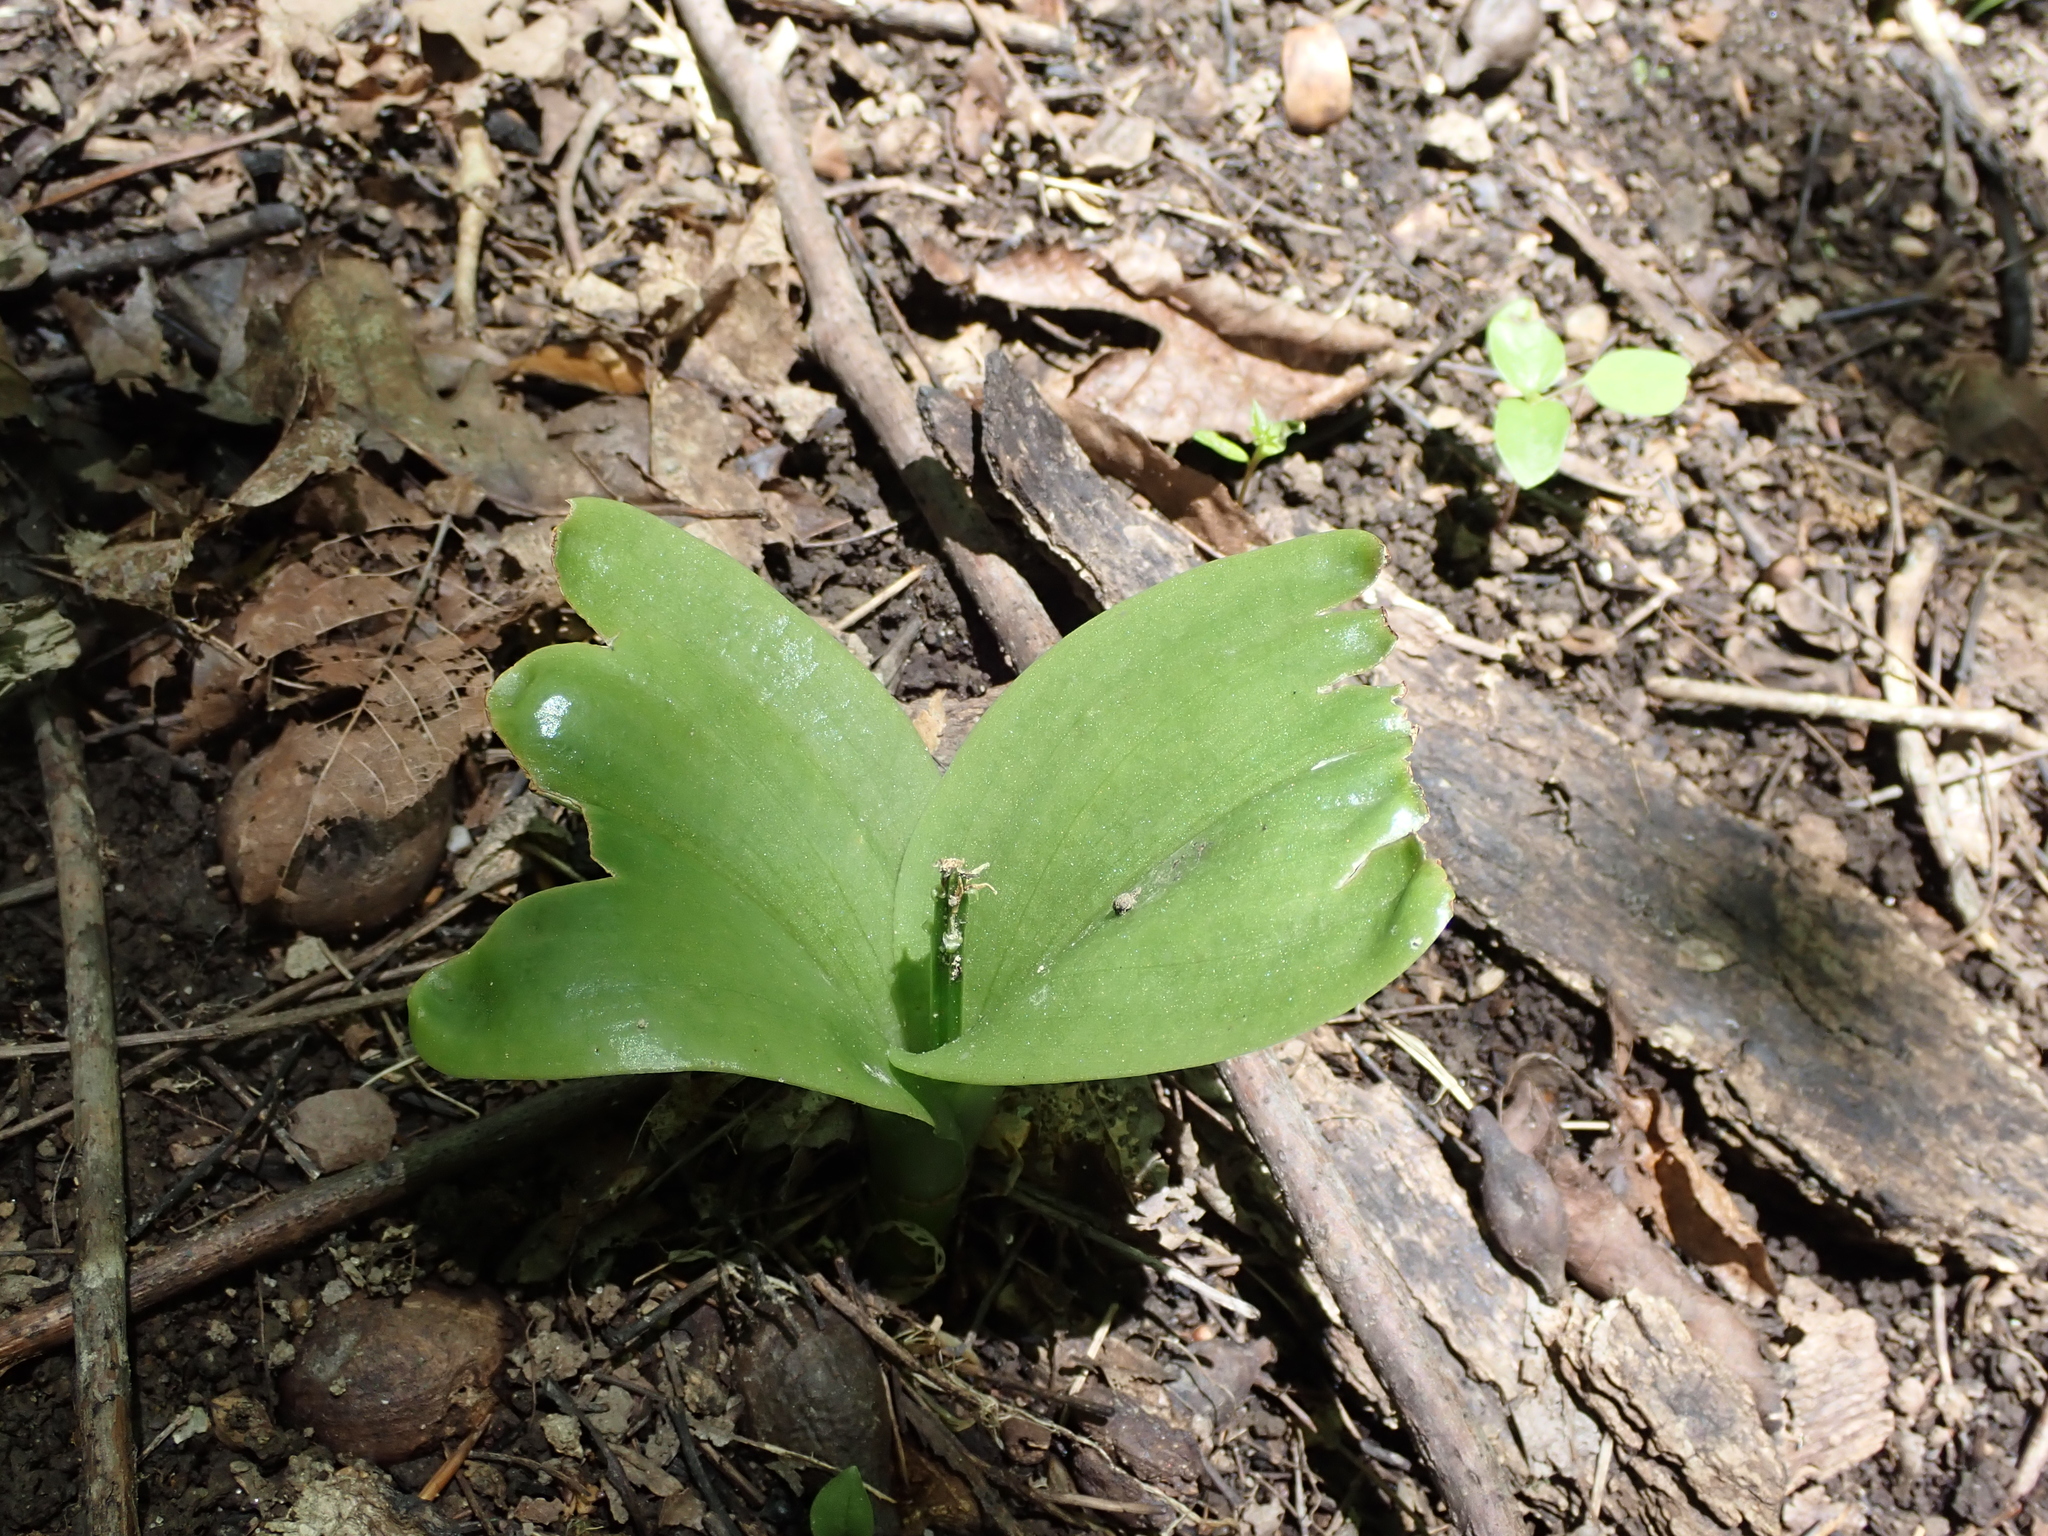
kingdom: Plantae
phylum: Tracheophyta
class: Liliopsida
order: Asparagales
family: Orchidaceae
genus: Liparis
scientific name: Liparis liliifolia
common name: Brown wide-lip orchid
